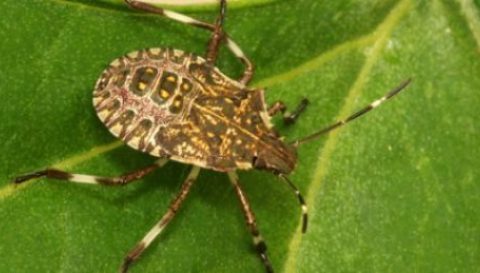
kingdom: Animalia
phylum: Arthropoda
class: Insecta
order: Hemiptera
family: Pentatomidae
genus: Halyomorpha
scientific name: Halyomorpha halys
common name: Brown marmorated stink bug
